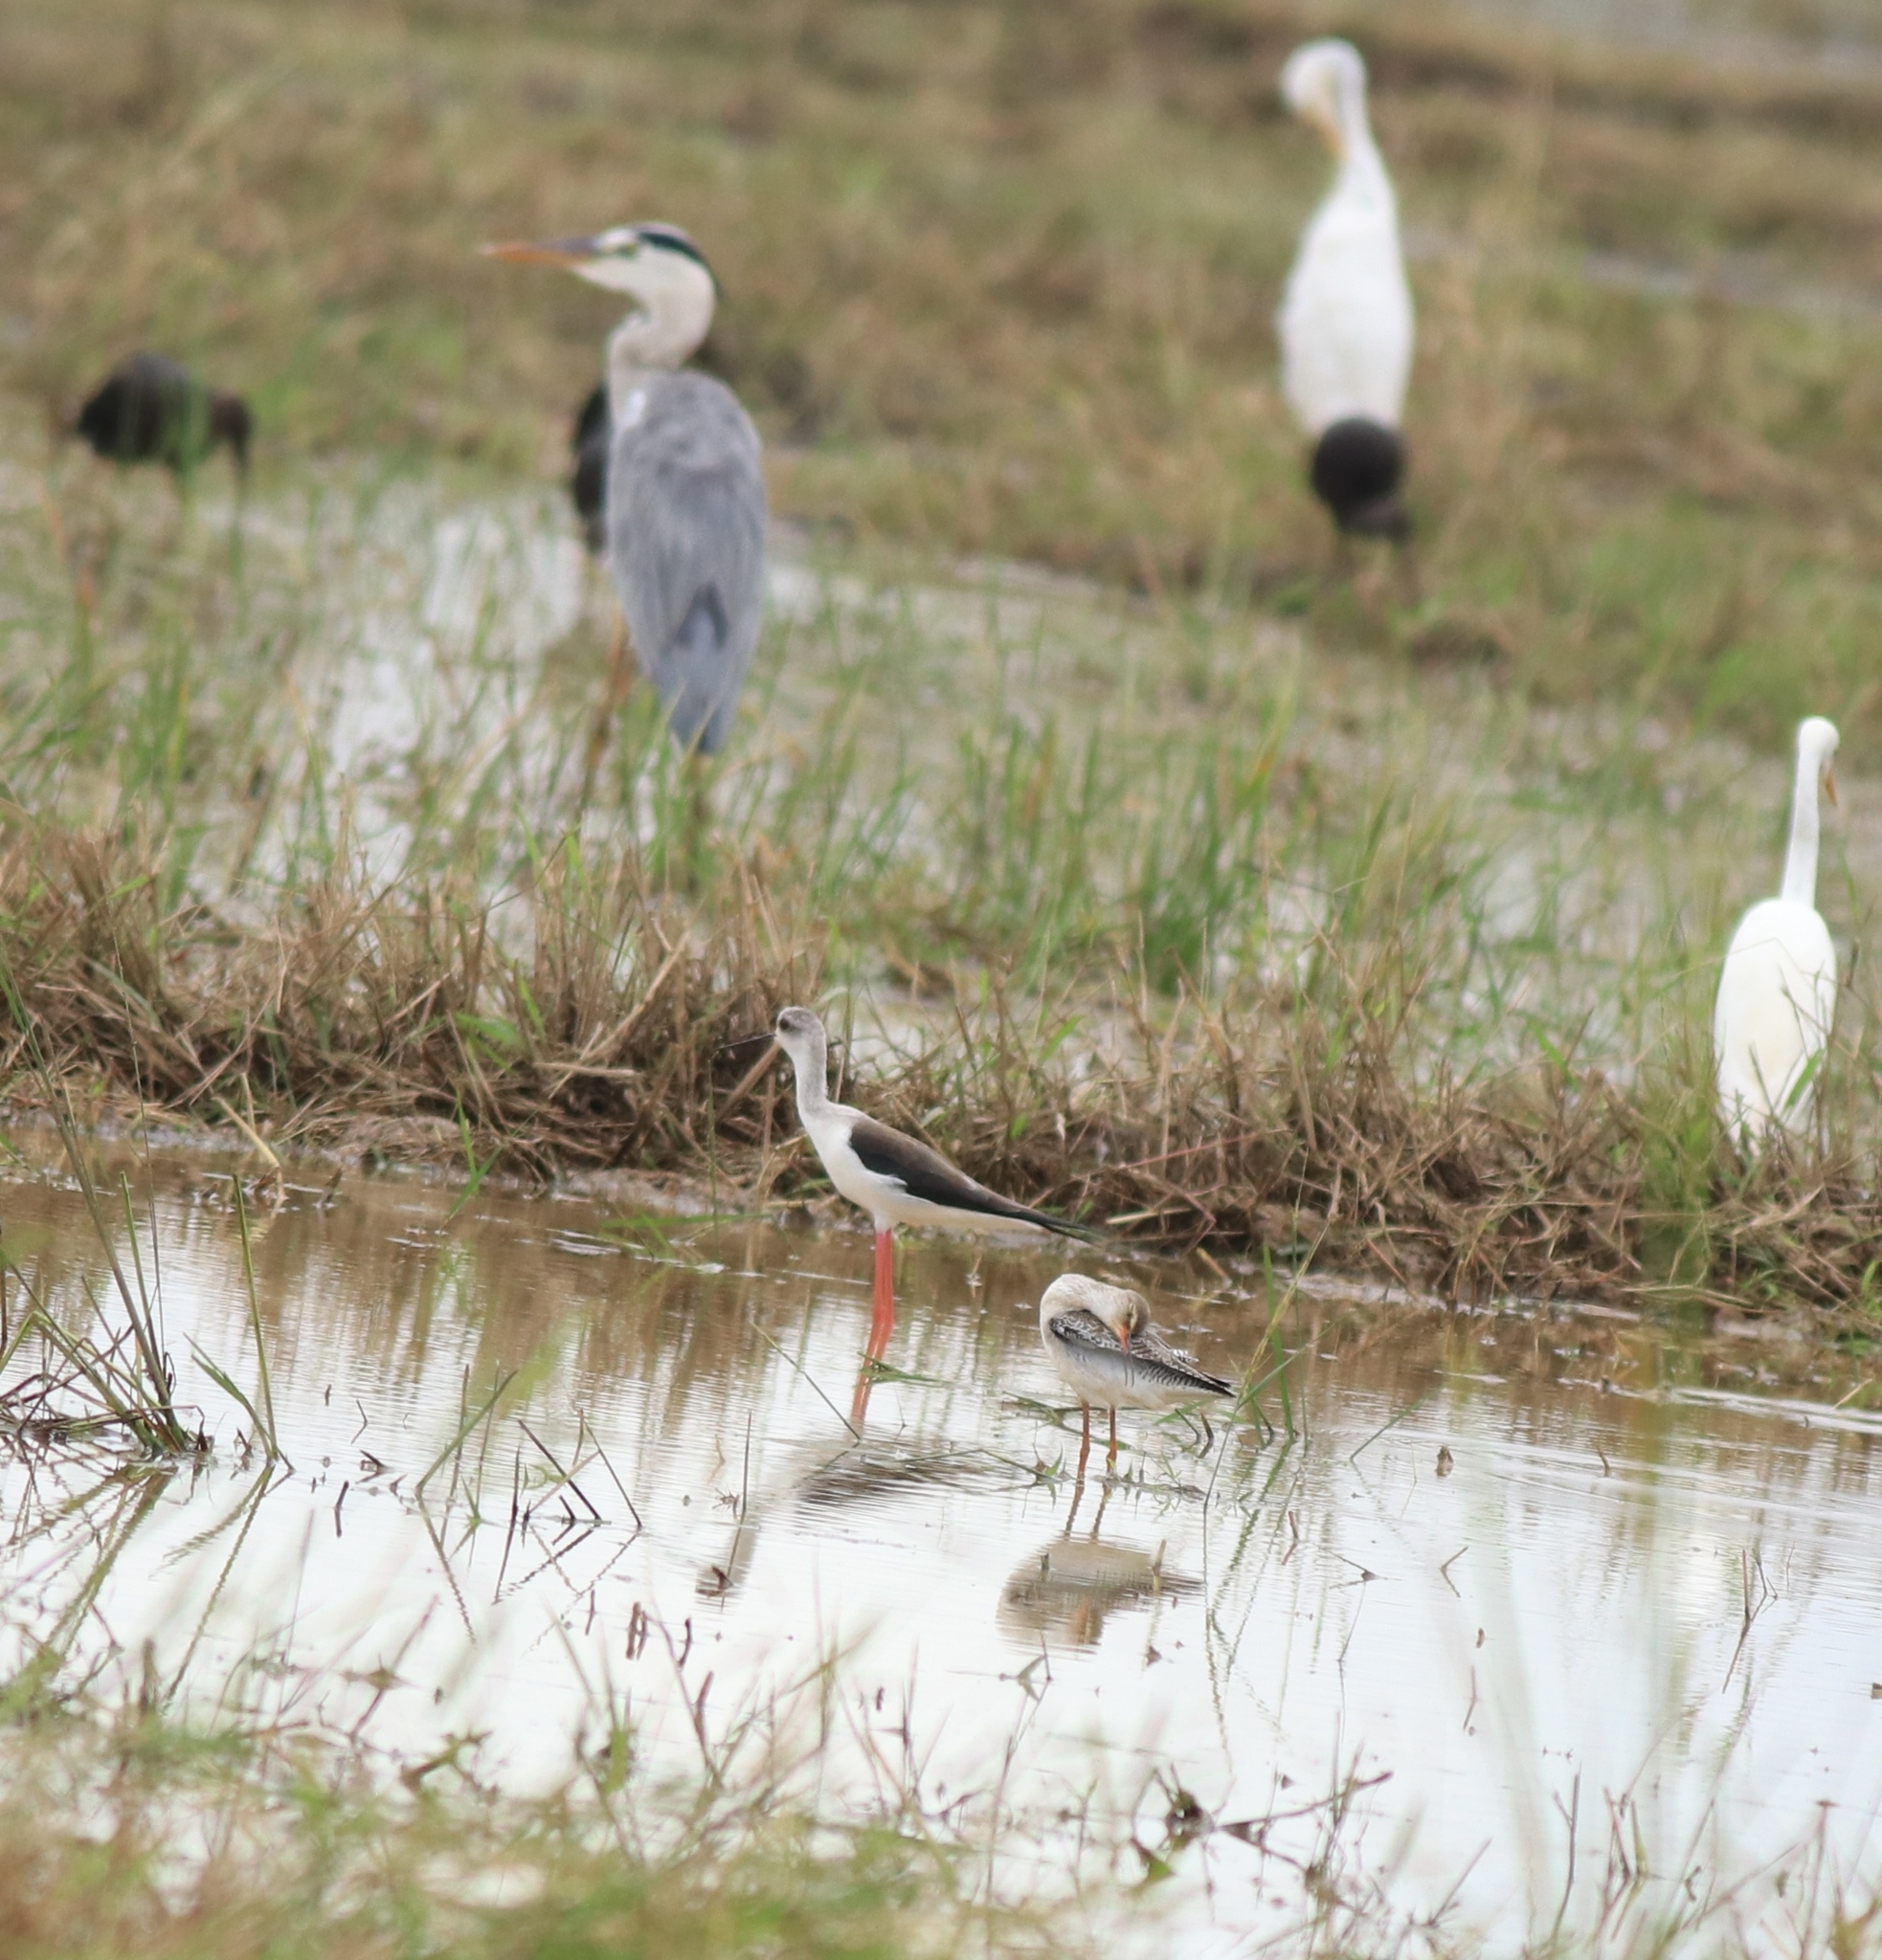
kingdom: Animalia
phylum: Chordata
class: Aves
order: Charadriiformes
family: Recurvirostridae
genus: Himantopus
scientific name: Himantopus himantopus
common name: Black-winged stilt
